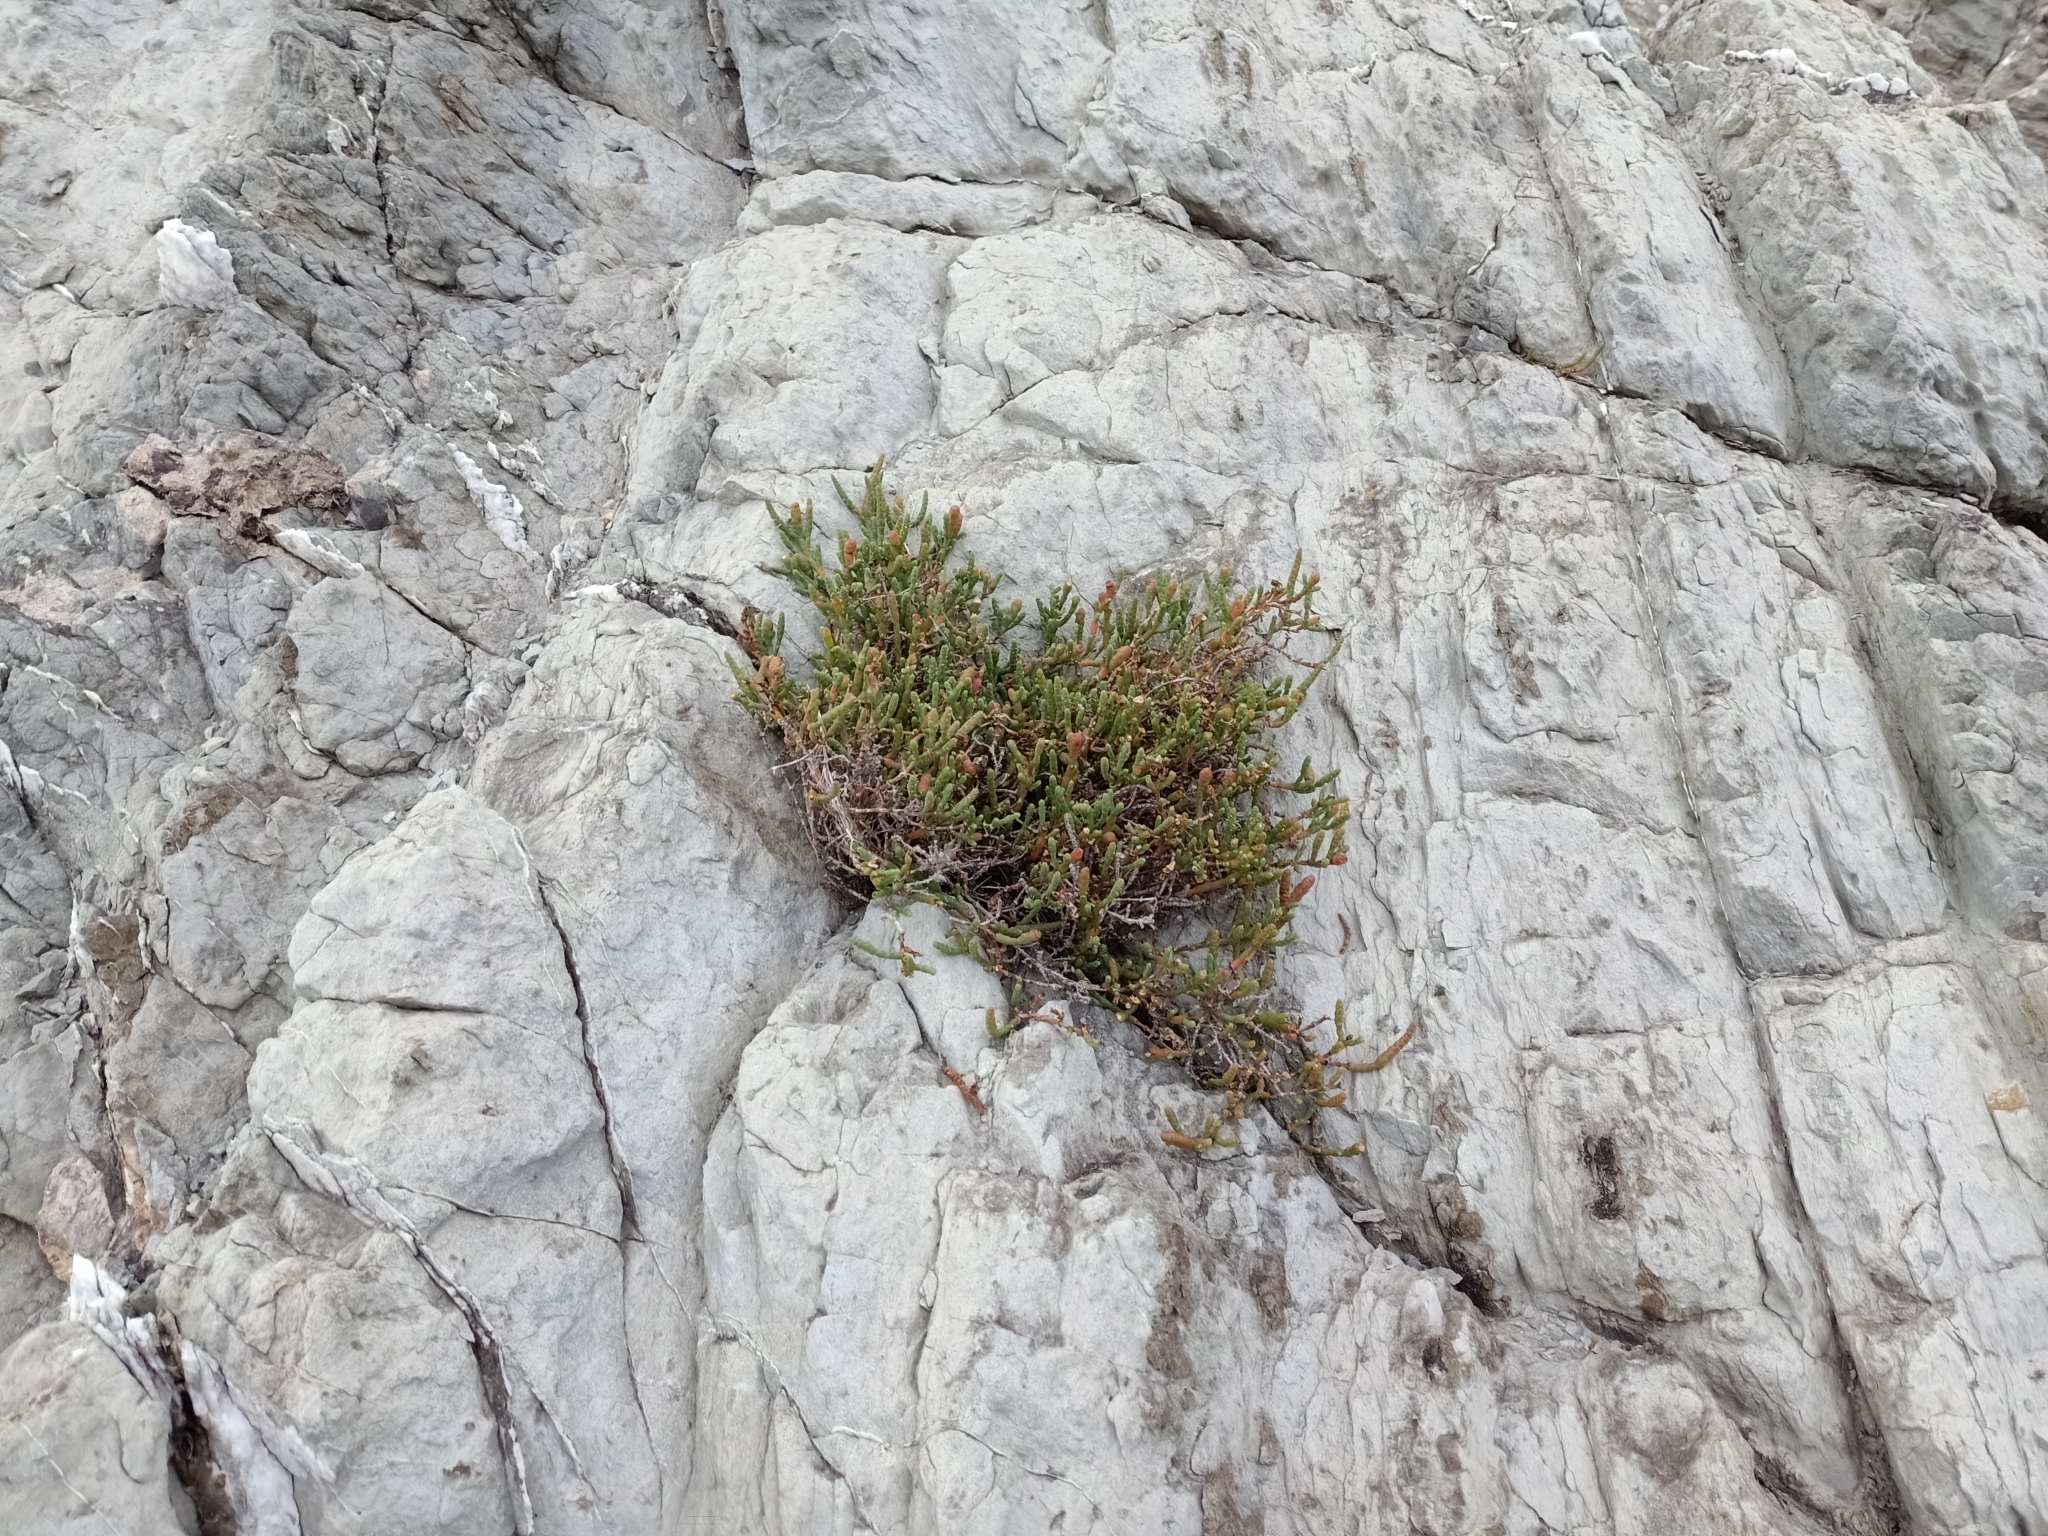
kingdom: Plantae
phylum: Tracheophyta
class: Magnoliopsida
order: Caryophyllales
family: Amaranthaceae
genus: Salicornia
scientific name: Salicornia quinqueflora
